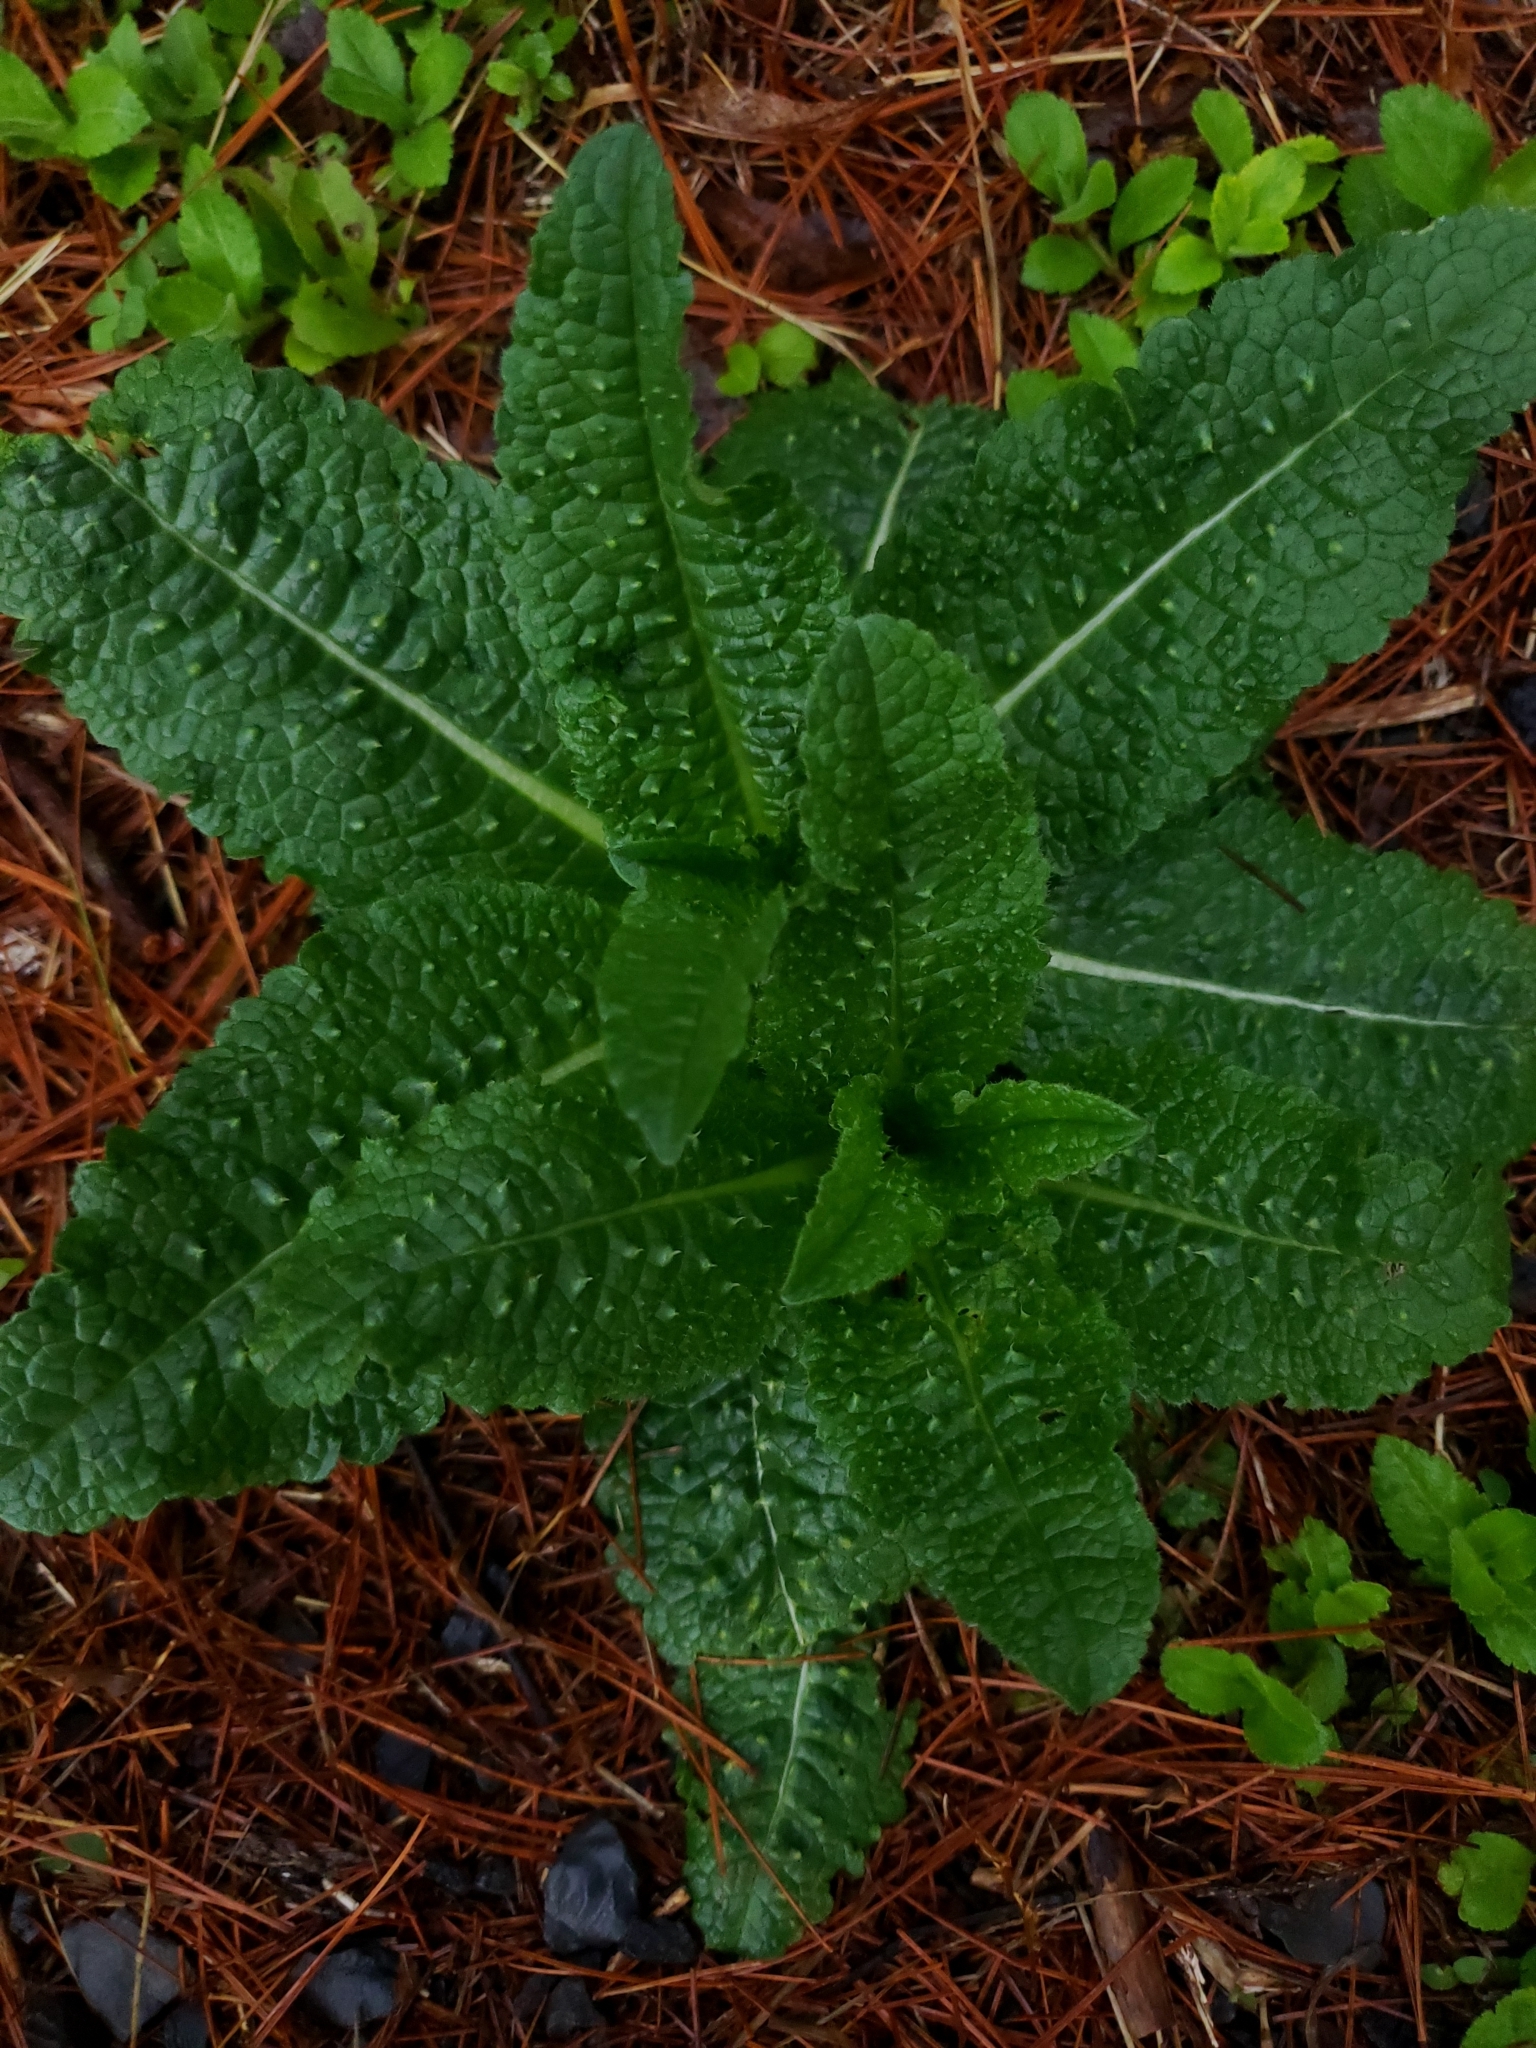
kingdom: Plantae
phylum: Tracheophyta
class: Magnoliopsida
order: Dipsacales
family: Caprifoliaceae
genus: Dipsacus
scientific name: Dipsacus fullonum
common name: Teasel
